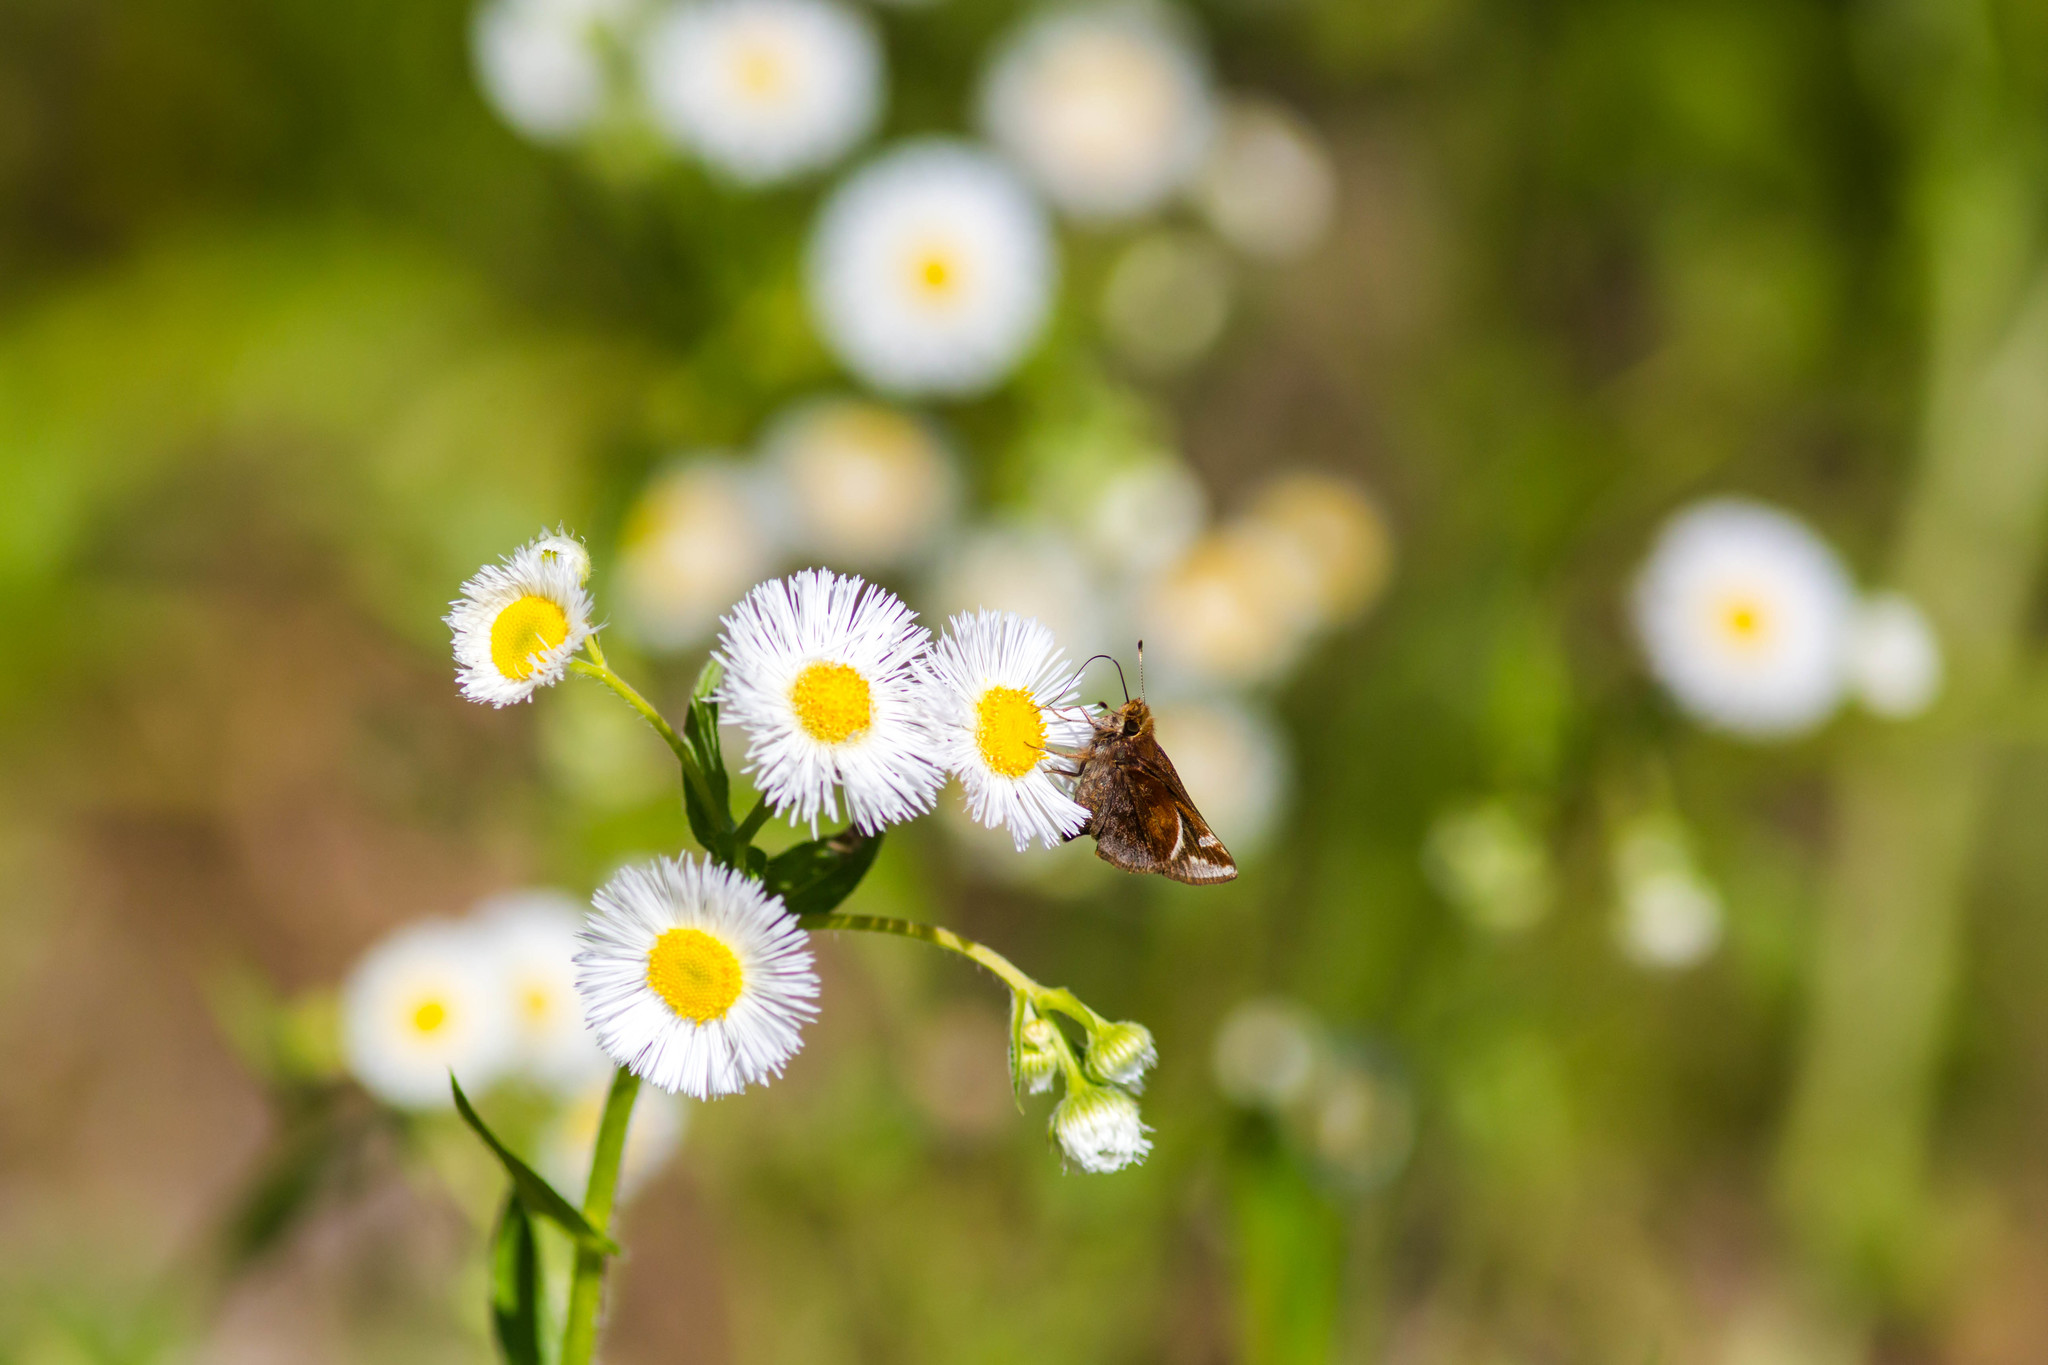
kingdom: Animalia
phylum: Arthropoda
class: Insecta
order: Lepidoptera
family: Hesperiidae
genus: Lon
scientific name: Lon zabulon
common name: Zabulon skipper
